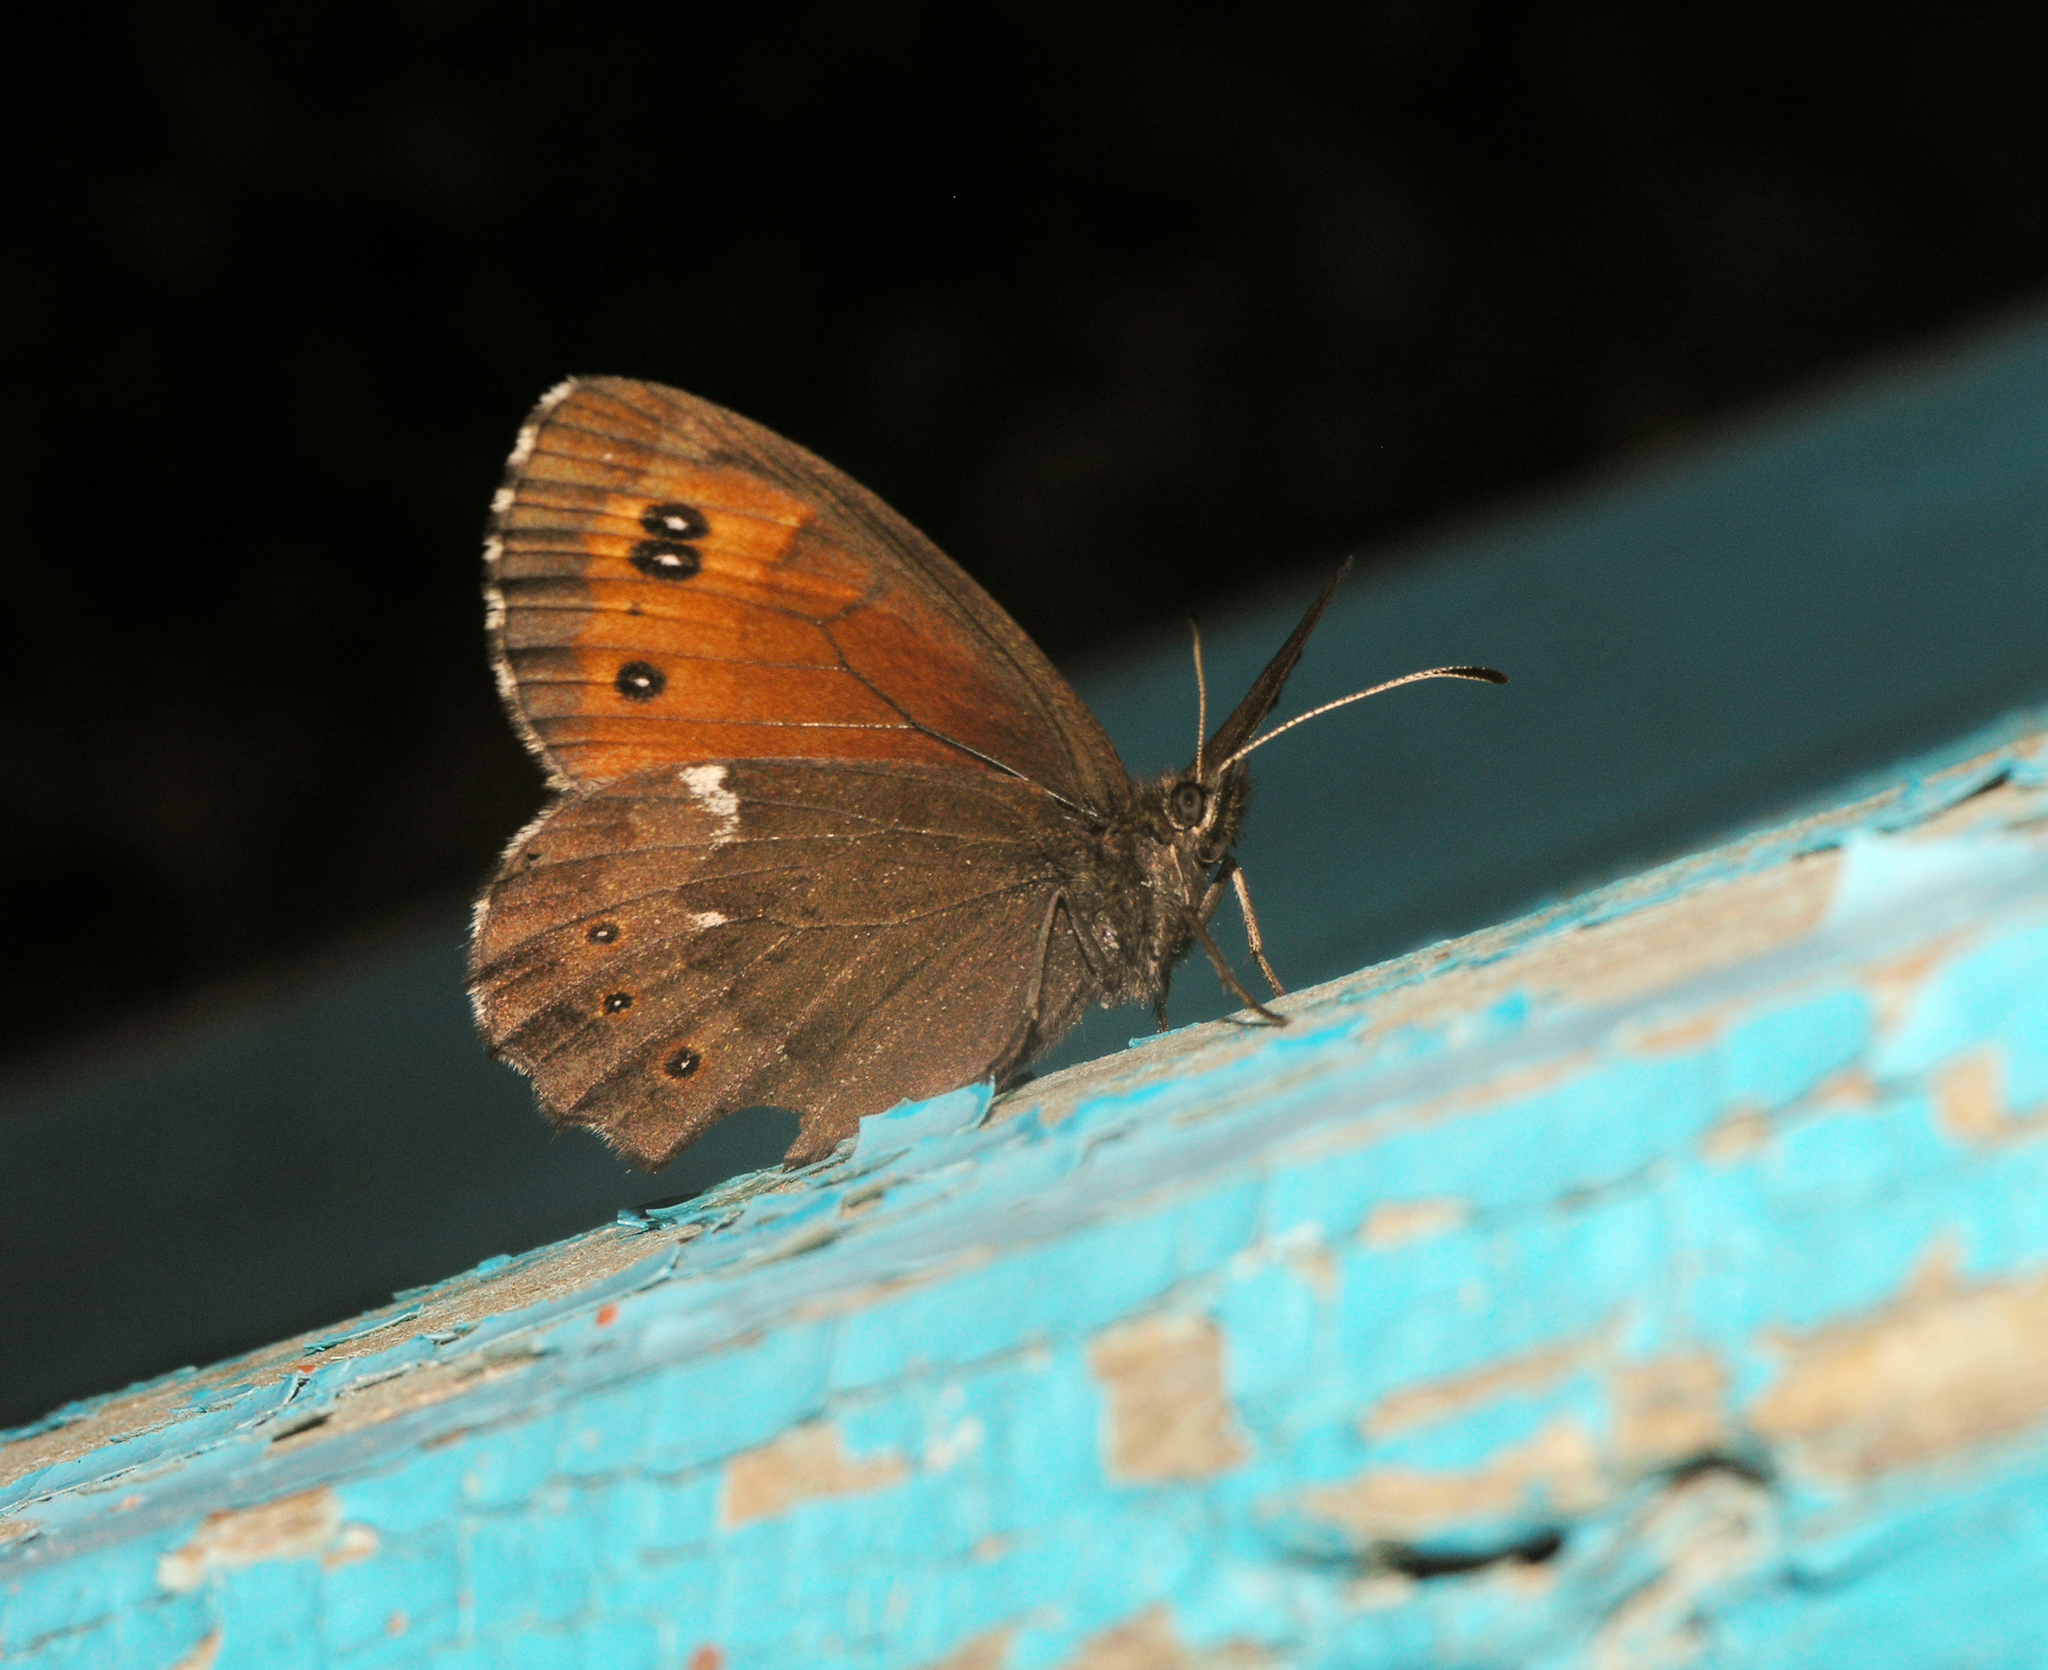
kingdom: Animalia
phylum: Arthropoda
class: Insecta
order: Lepidoptera
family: Nymphalidae
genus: Erebia
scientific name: Erebia ligea
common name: Arran brown
